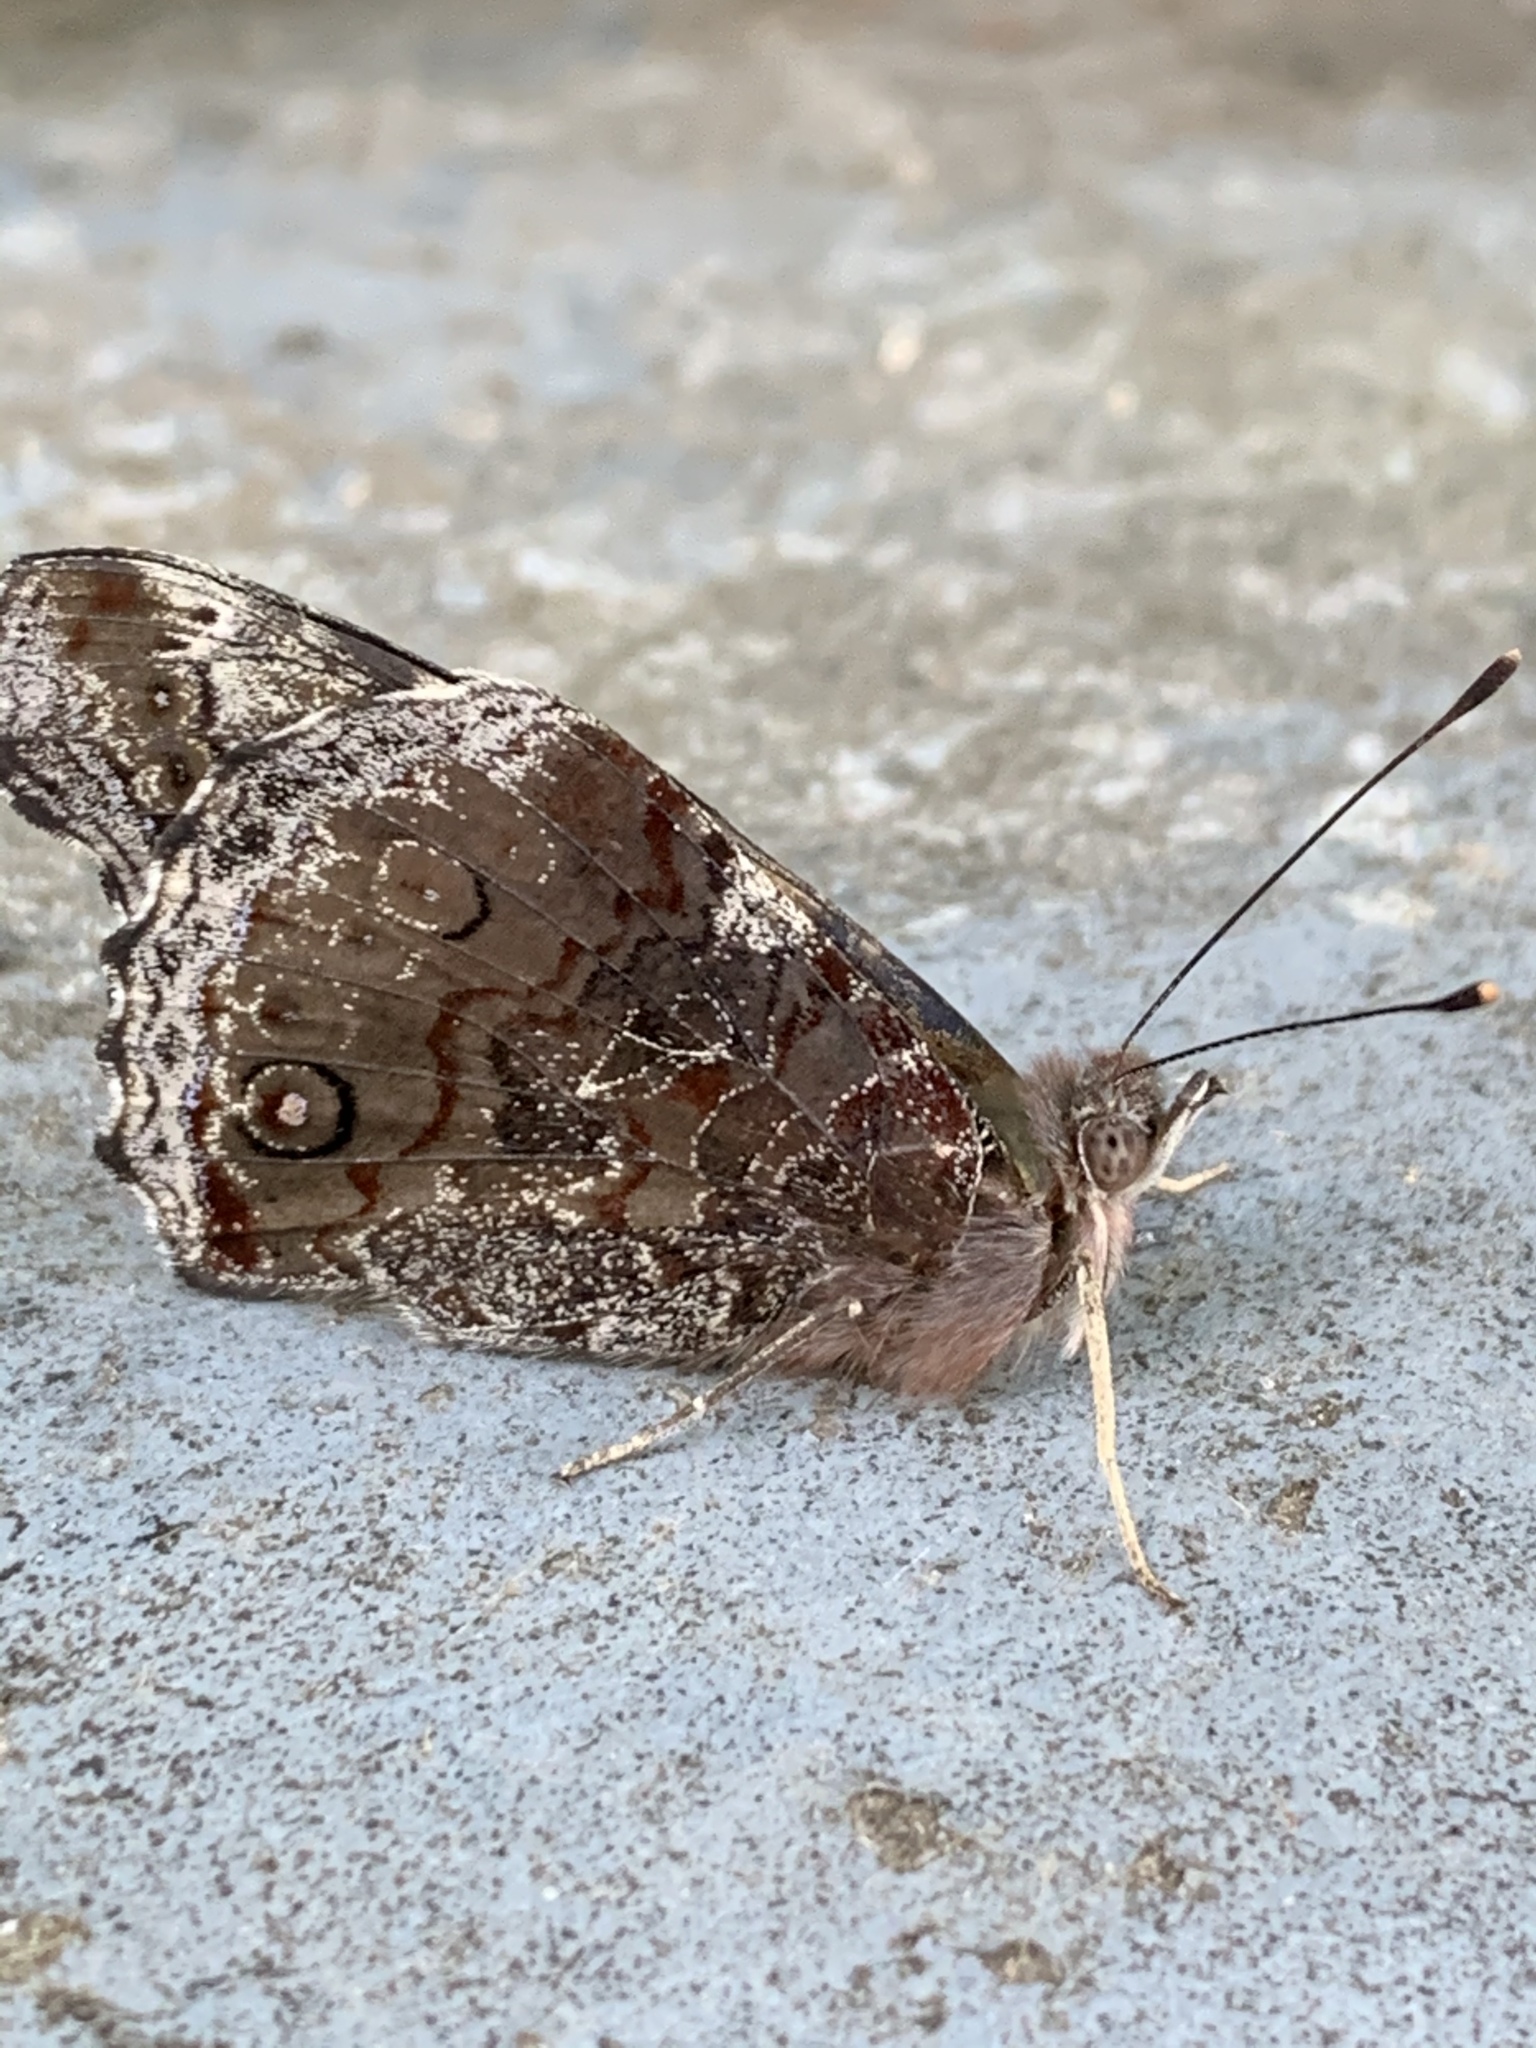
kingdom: Animalia
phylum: Arthropoda
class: Insecta
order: Lepidoptera
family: Nymphalidae
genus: Vanessa
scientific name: Vanessa itea
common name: Yellow admiral
